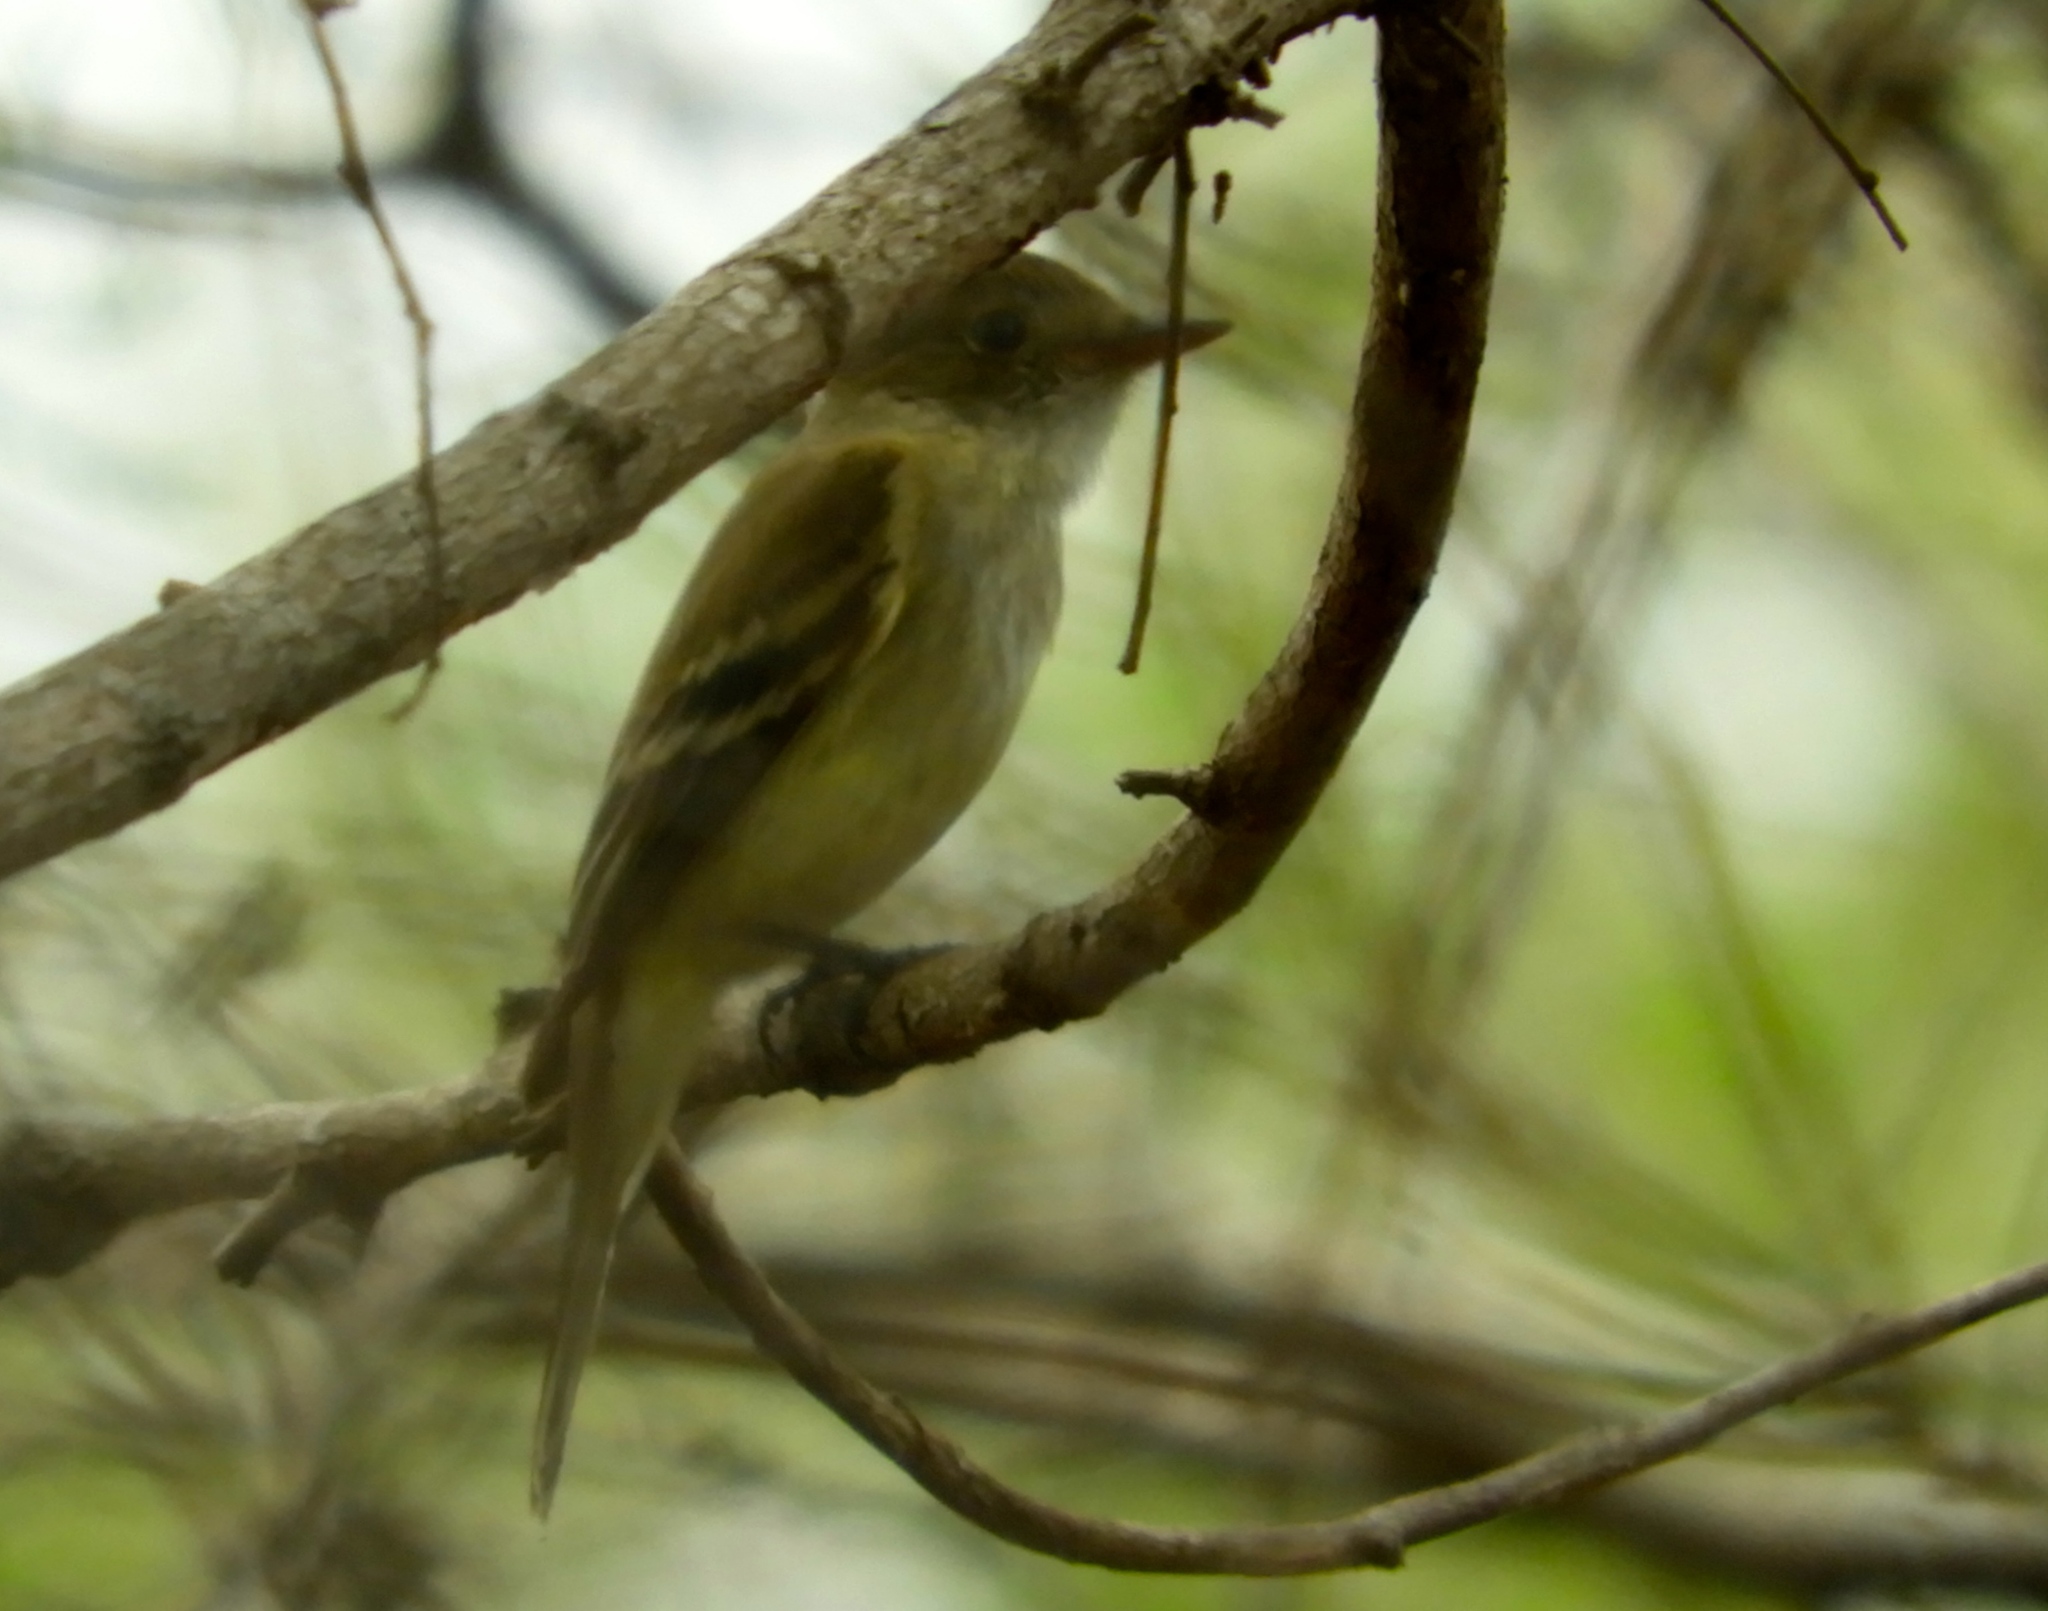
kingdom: Animalia
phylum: Chordata
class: Aves
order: Passeriformes
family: Tyrannidae
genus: Empidonax
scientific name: Empidonax
